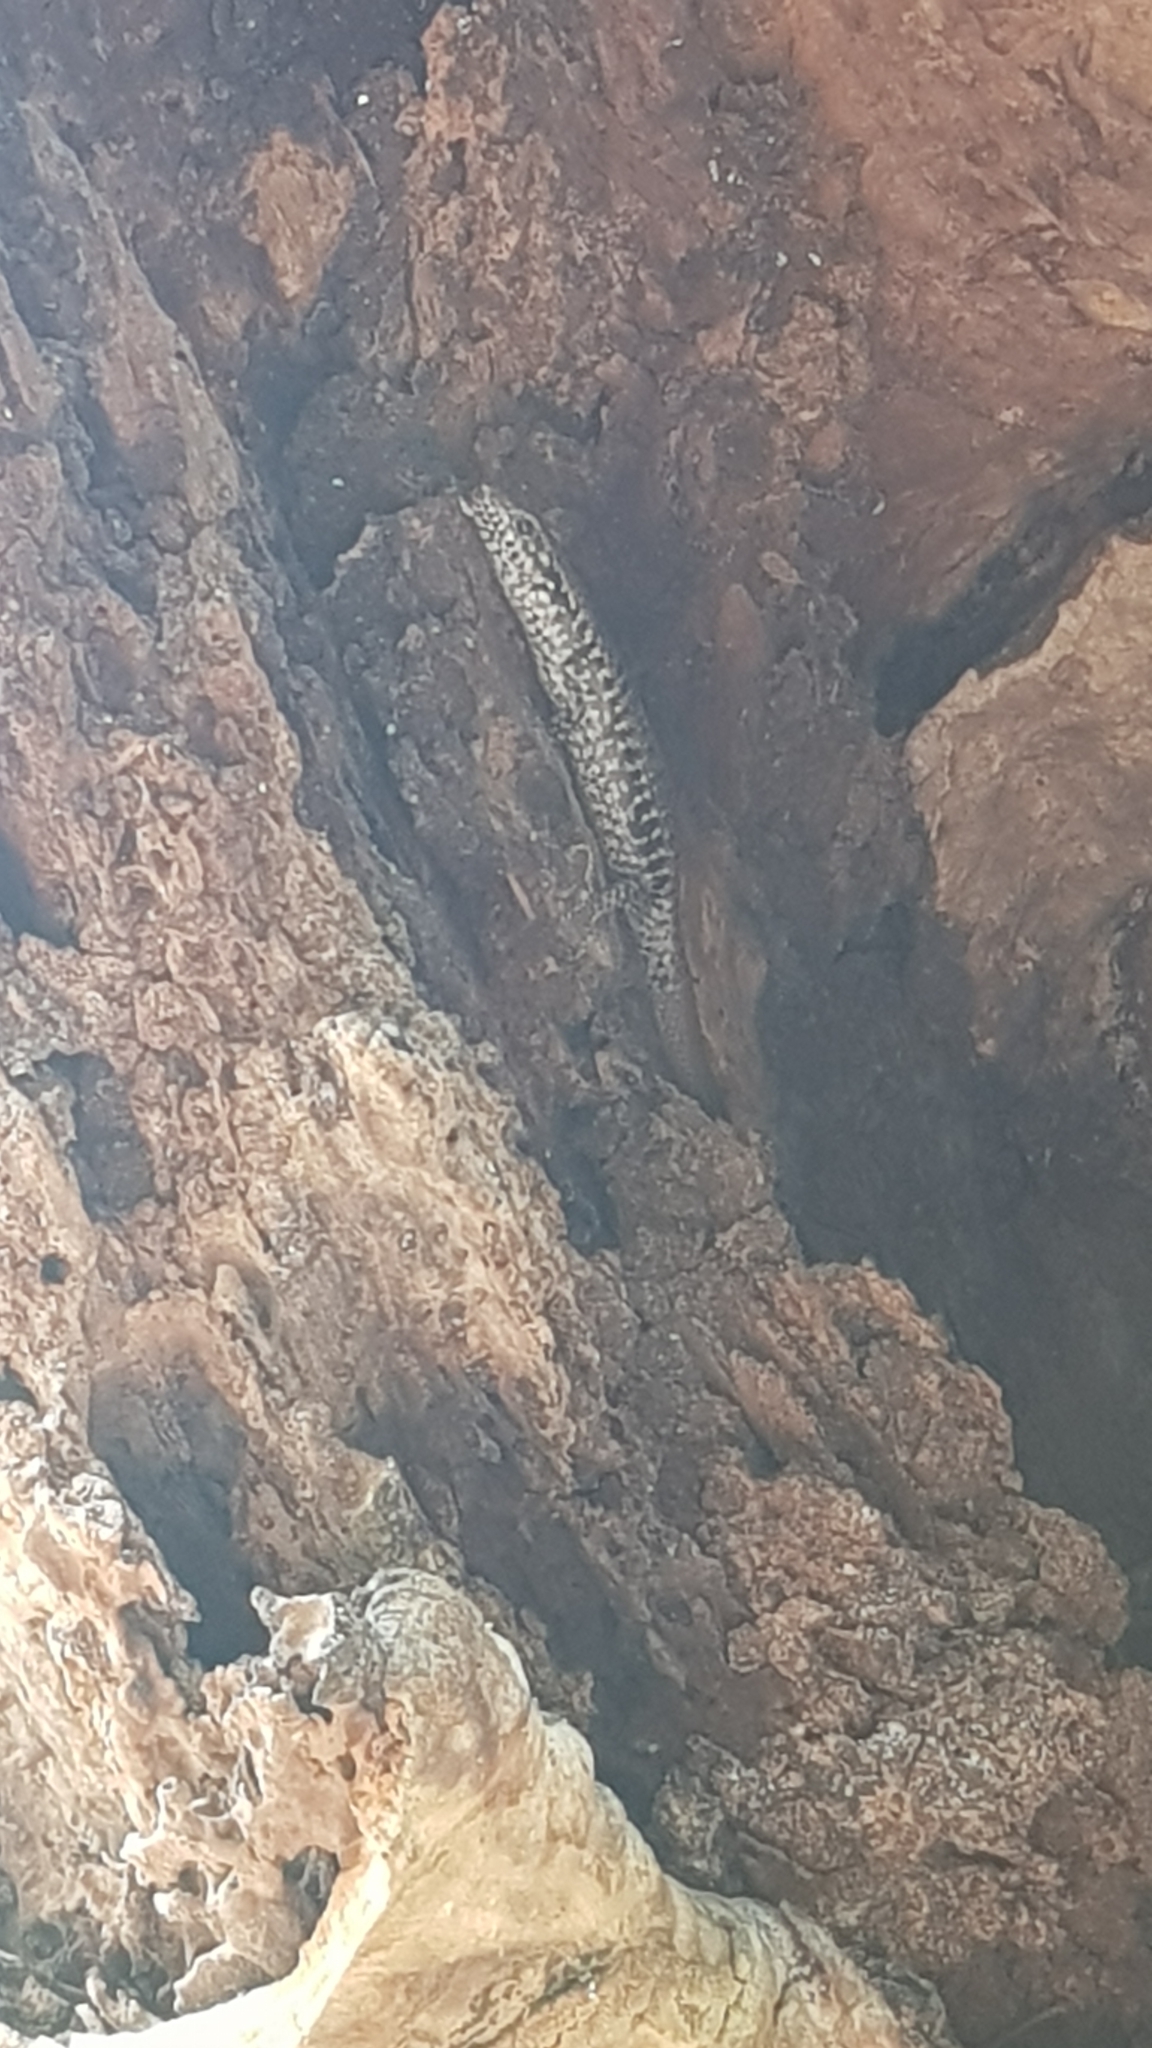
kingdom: Animalia
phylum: Chordata
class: Squamata
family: Scincidae
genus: Concinnia
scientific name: Concinnia tenuis
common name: Bar-sided forest-skink
